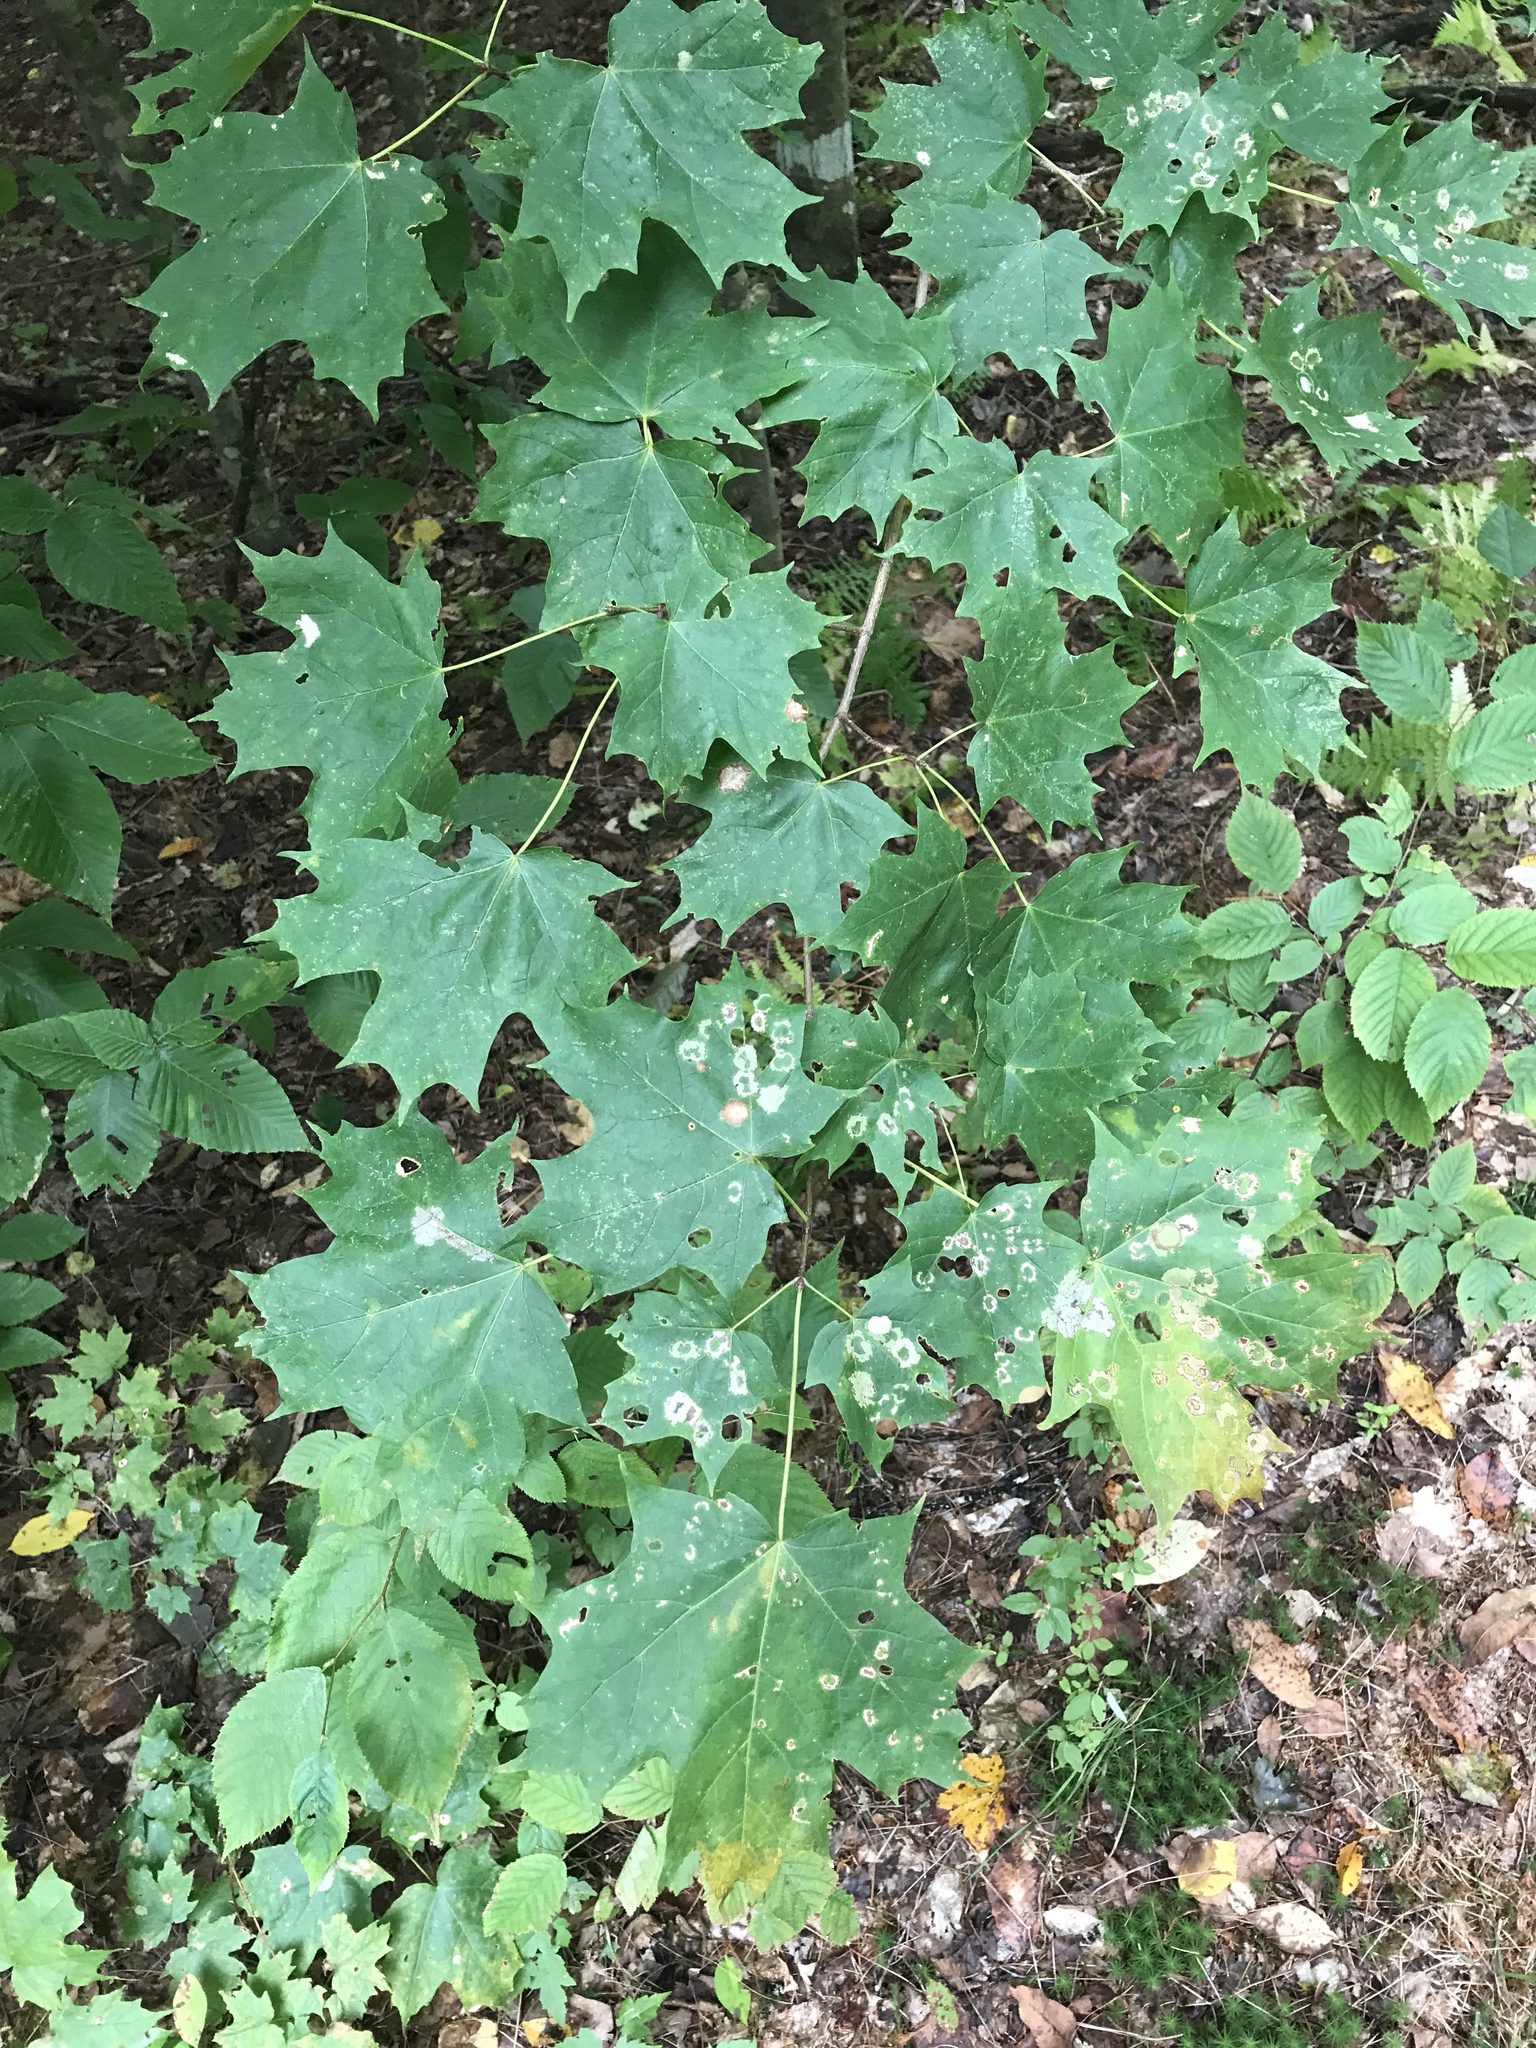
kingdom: Plantae
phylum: Tracheophyta
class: Magnoliopsida
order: Sapindales
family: Sapindaceae
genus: Acer
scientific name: Acer saccharum
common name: Sugar maple
